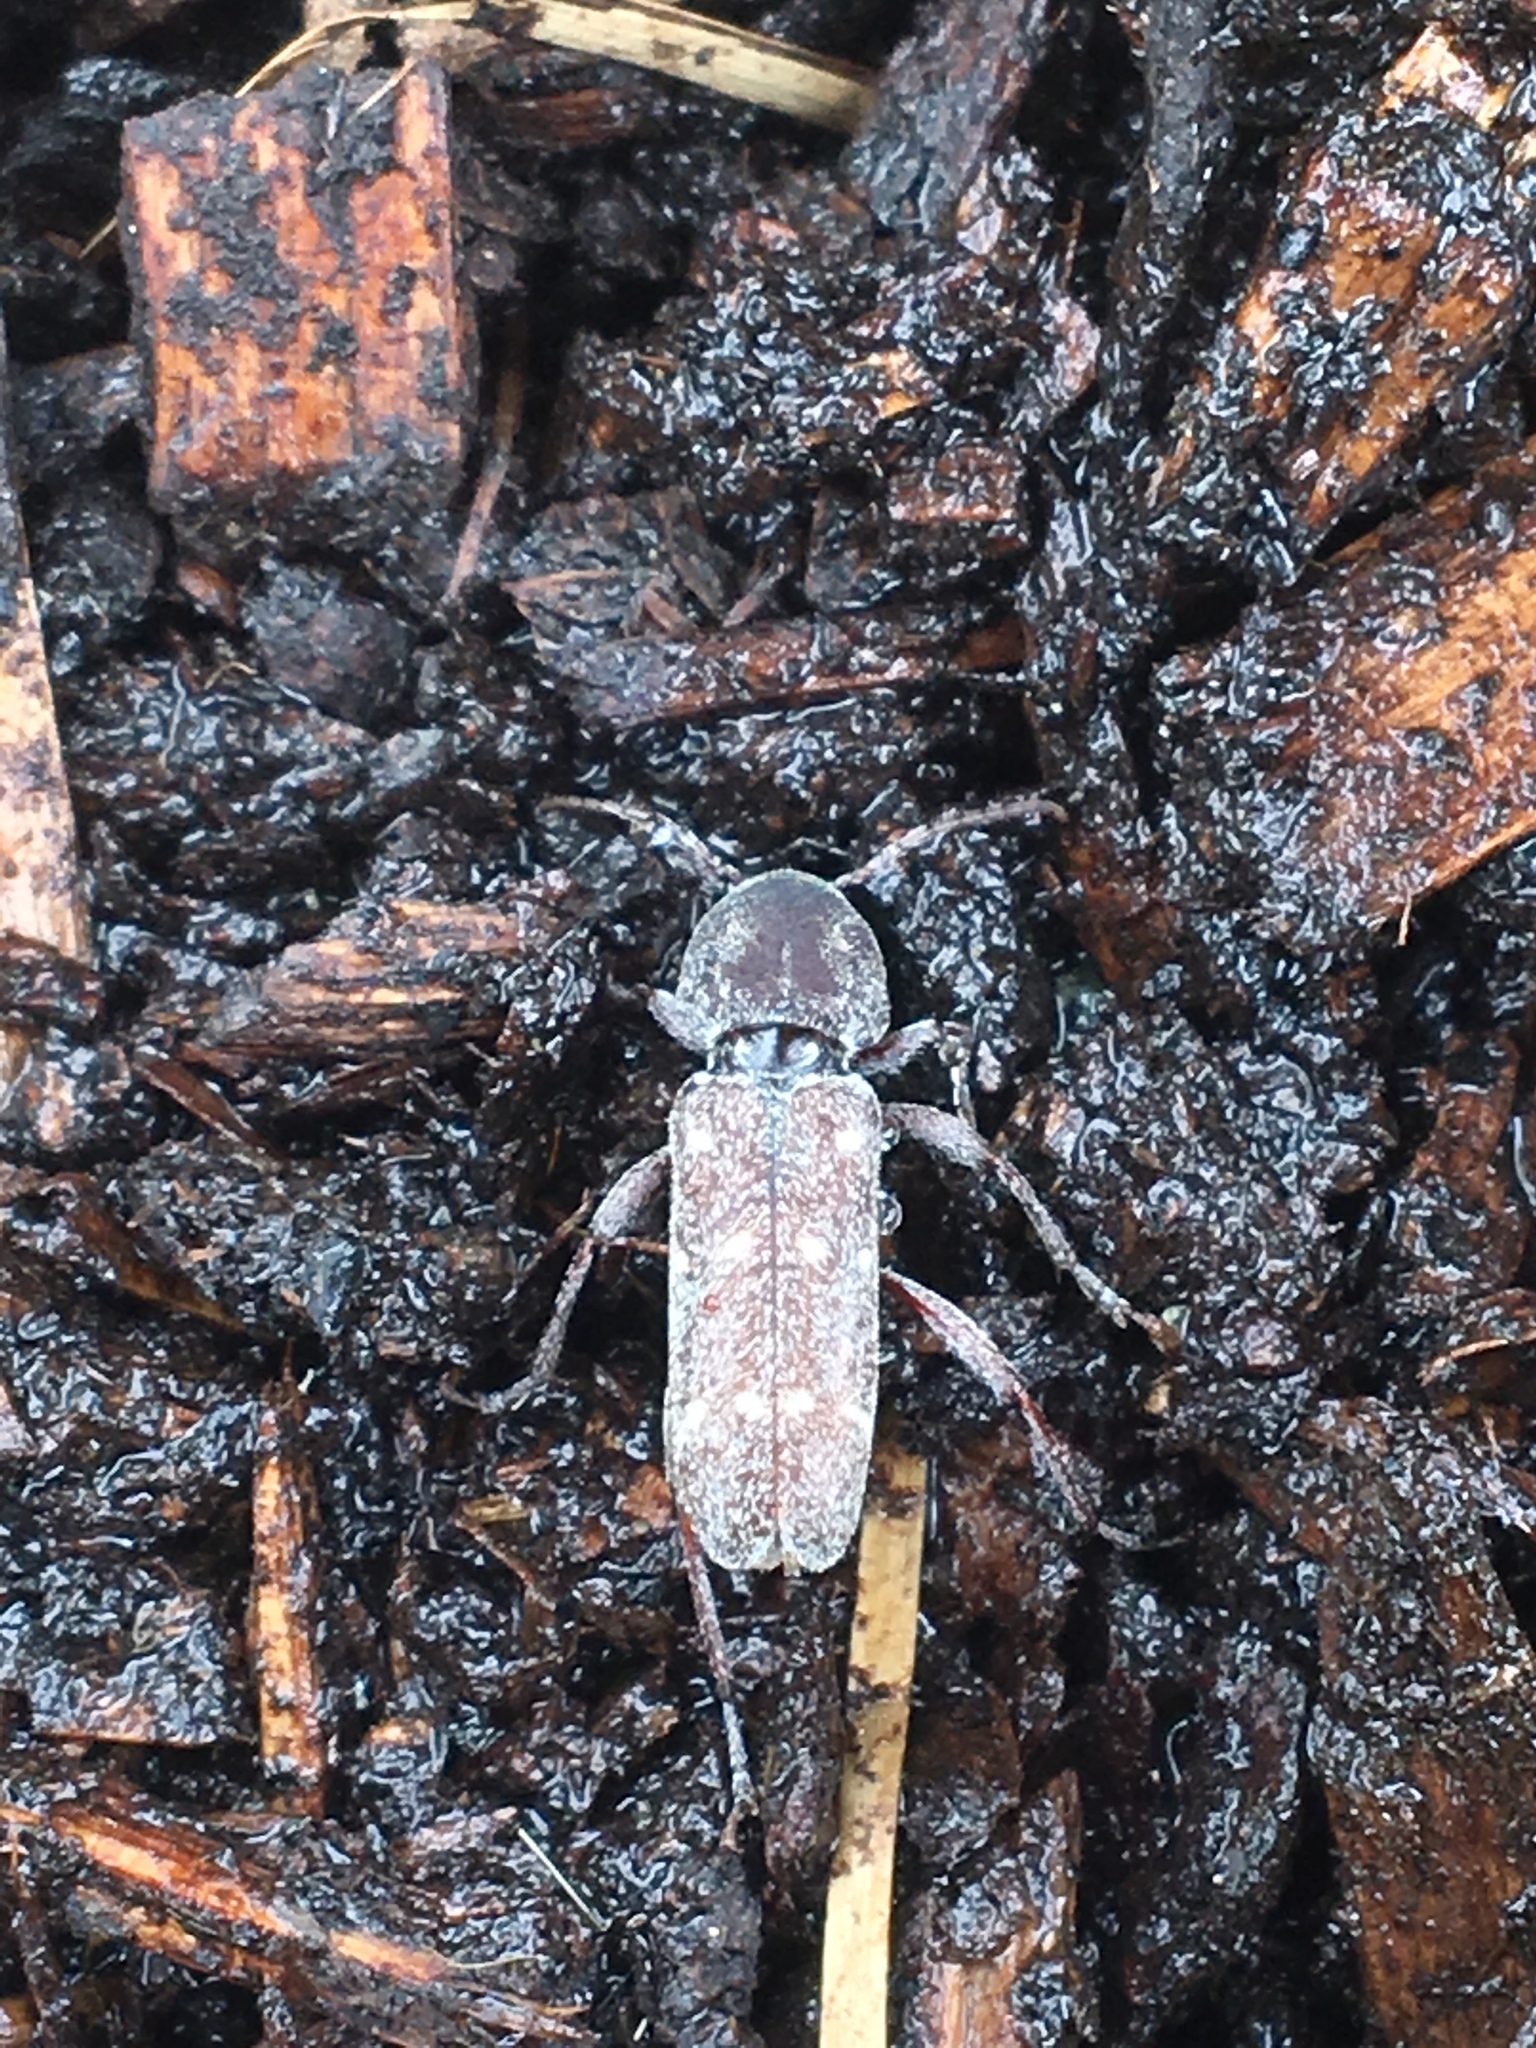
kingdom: Animalia
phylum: Arthropoda
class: Insecta
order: Coleoptera
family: Cerambycidae
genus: Xylotrechus
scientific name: Xylotrechus mormonus
